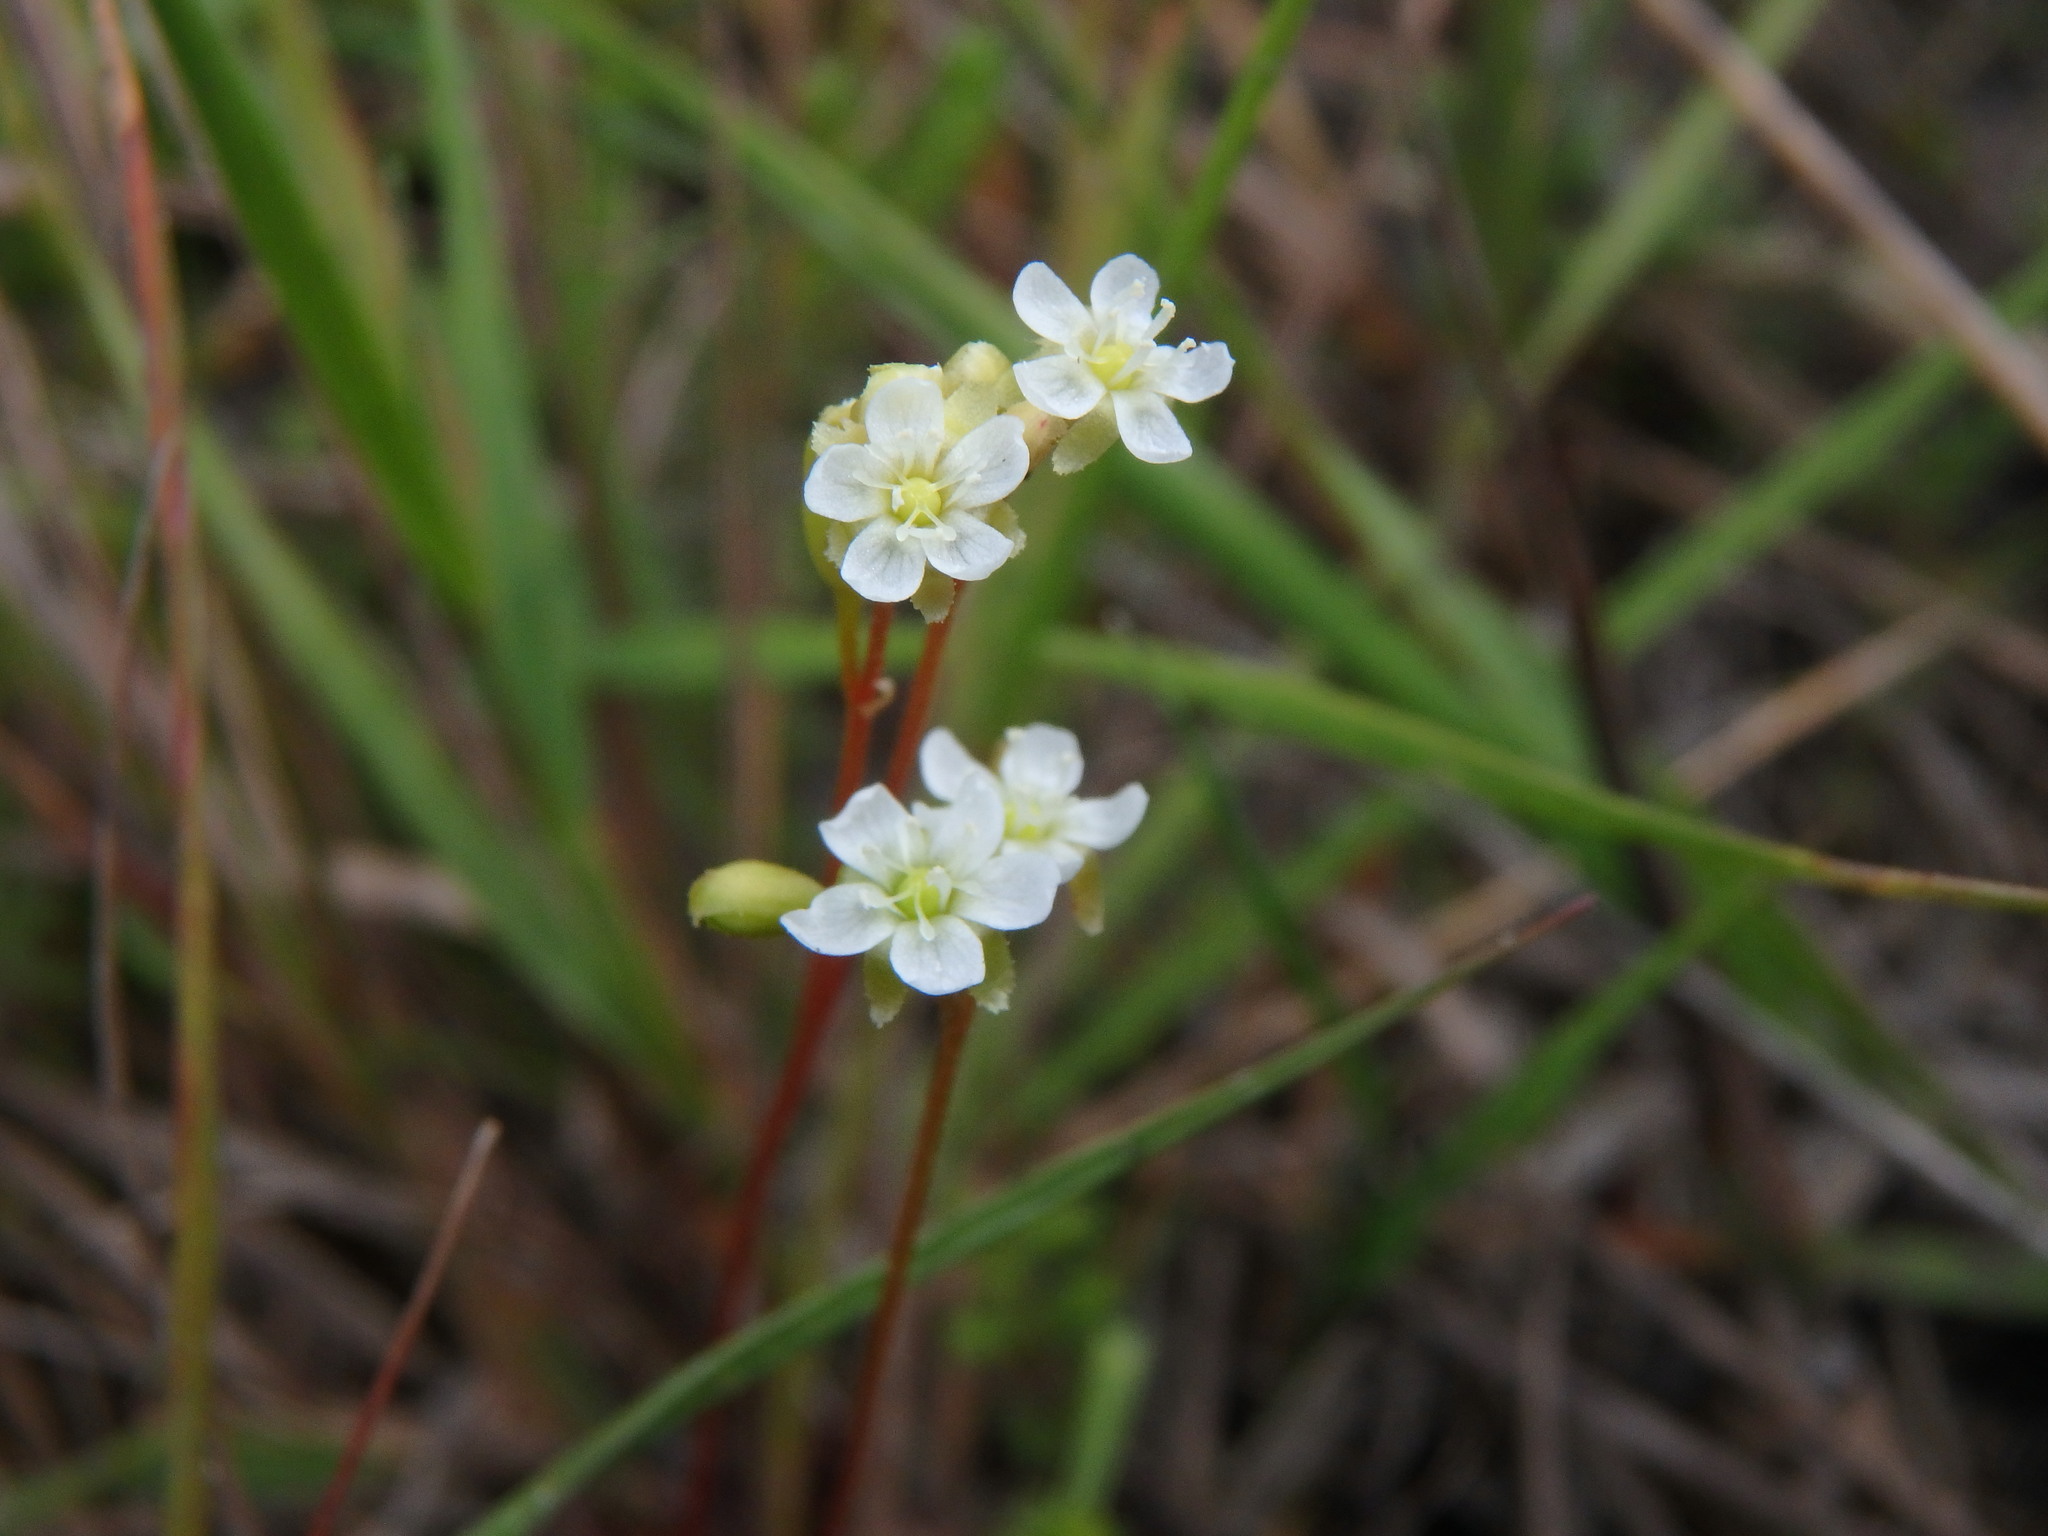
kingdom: Plantae
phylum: Tracheophyta
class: Magnoliopsida
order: Caryophyllales
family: Droseraceae
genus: Drosera
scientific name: Drosera rotundifolia
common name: Round-leaved sundew
